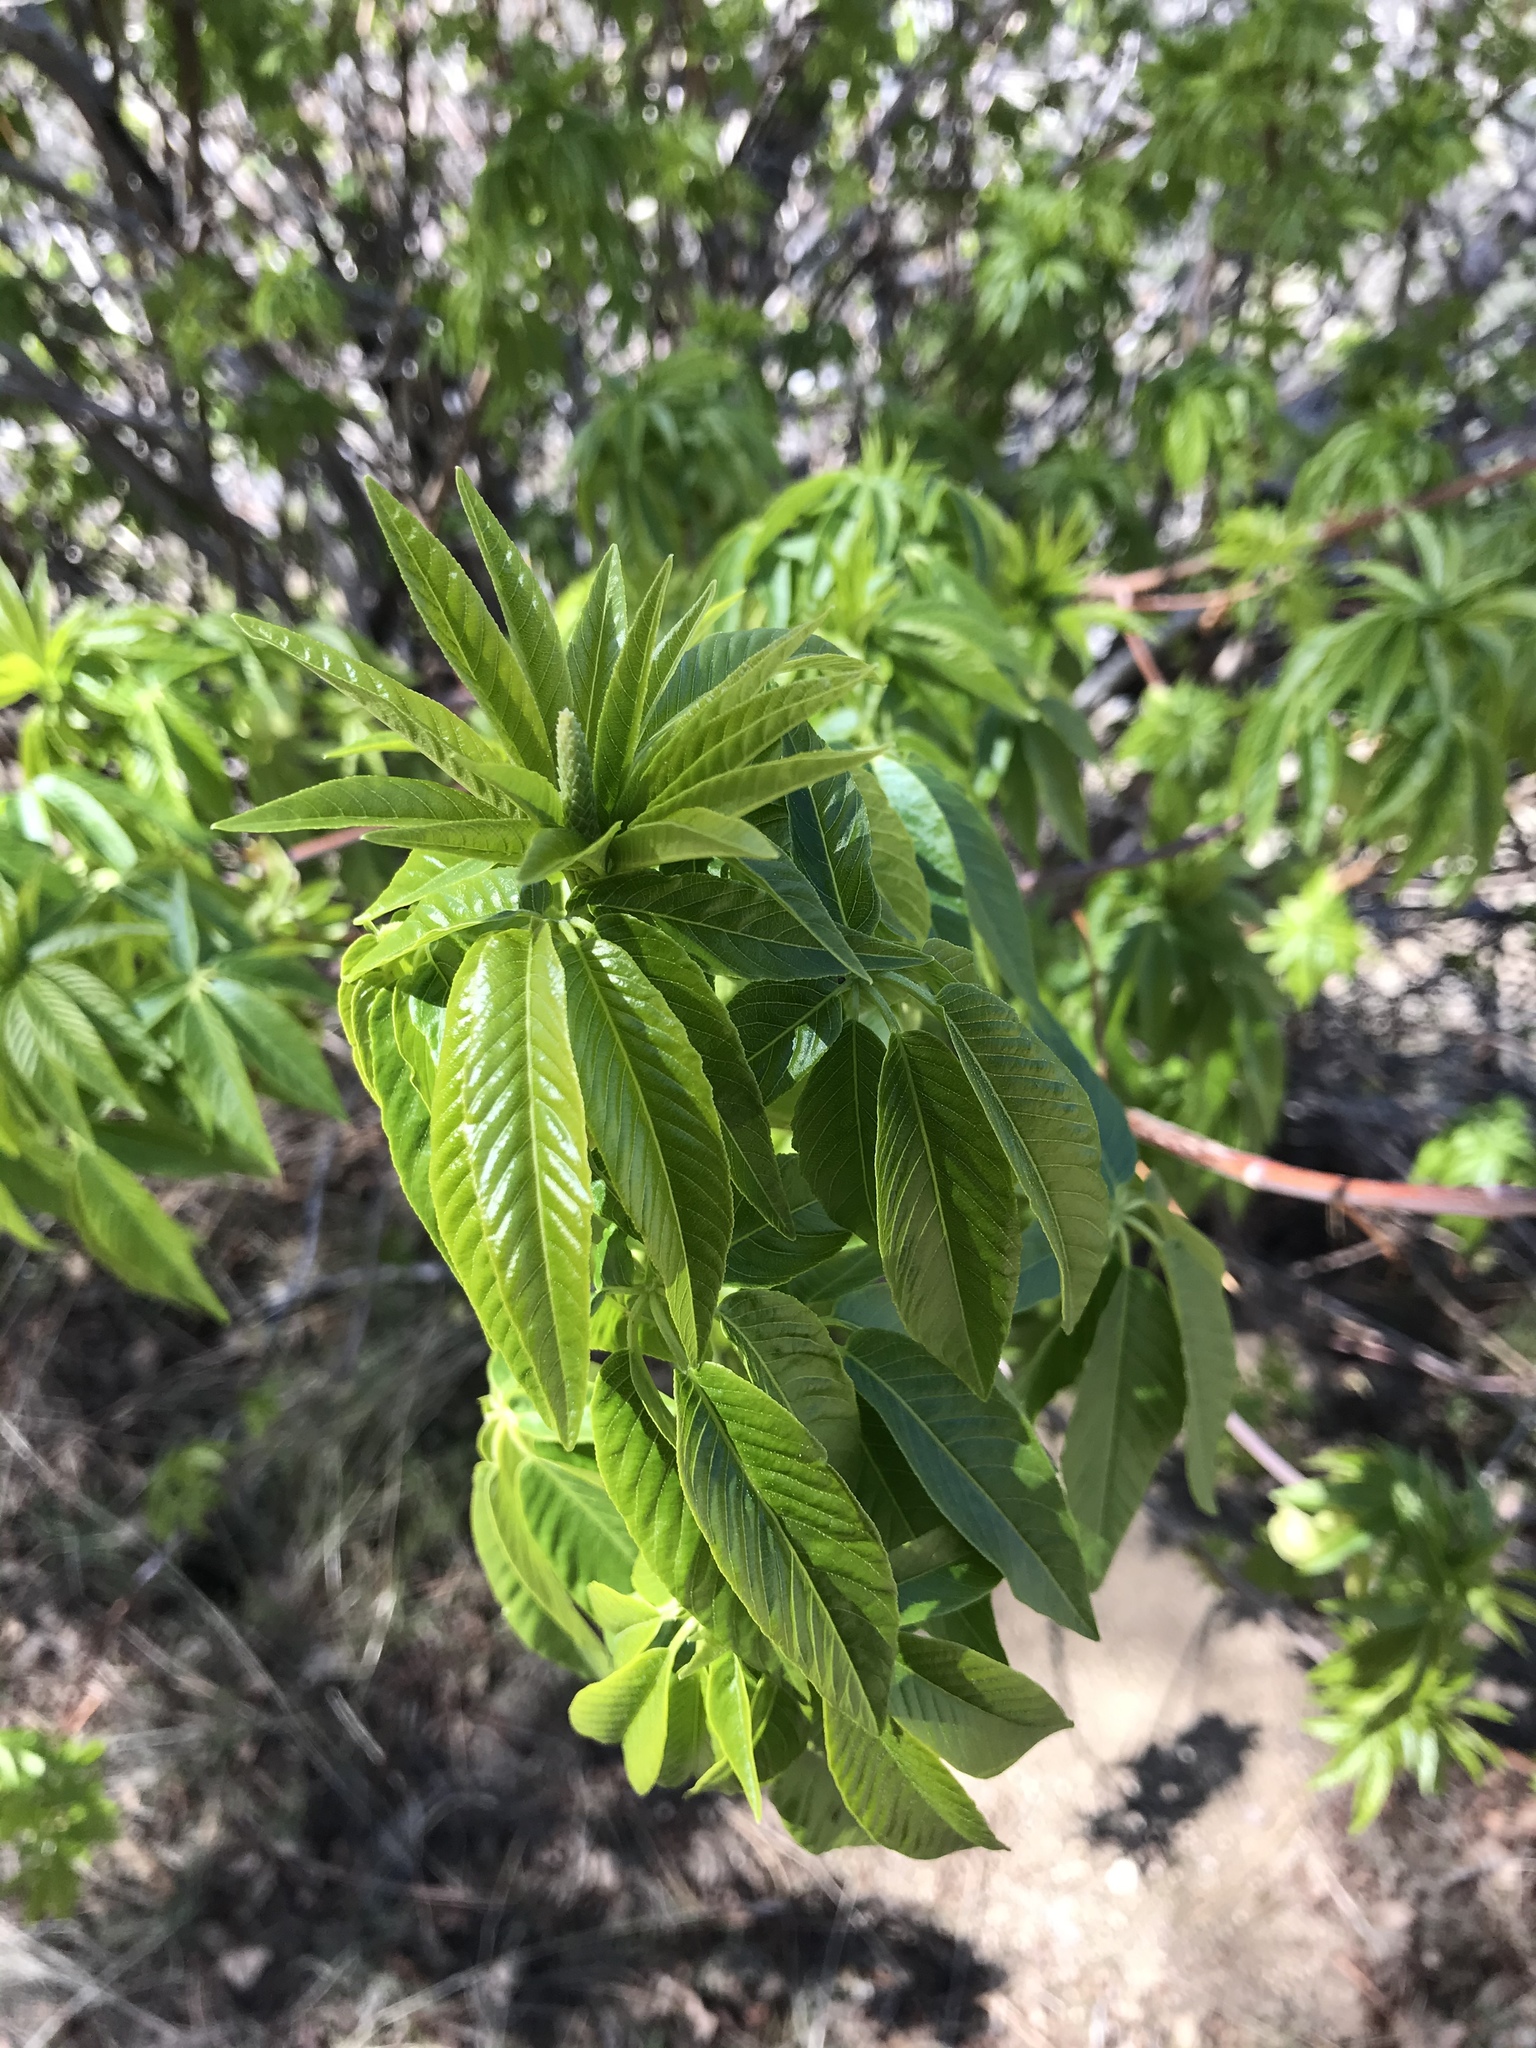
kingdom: Plantae
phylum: Tracheophyta
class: Magnoliopsida
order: Sapindales
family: Sapindaceae
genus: Aesculus
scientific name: Aesculus californica
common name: California buckeye
